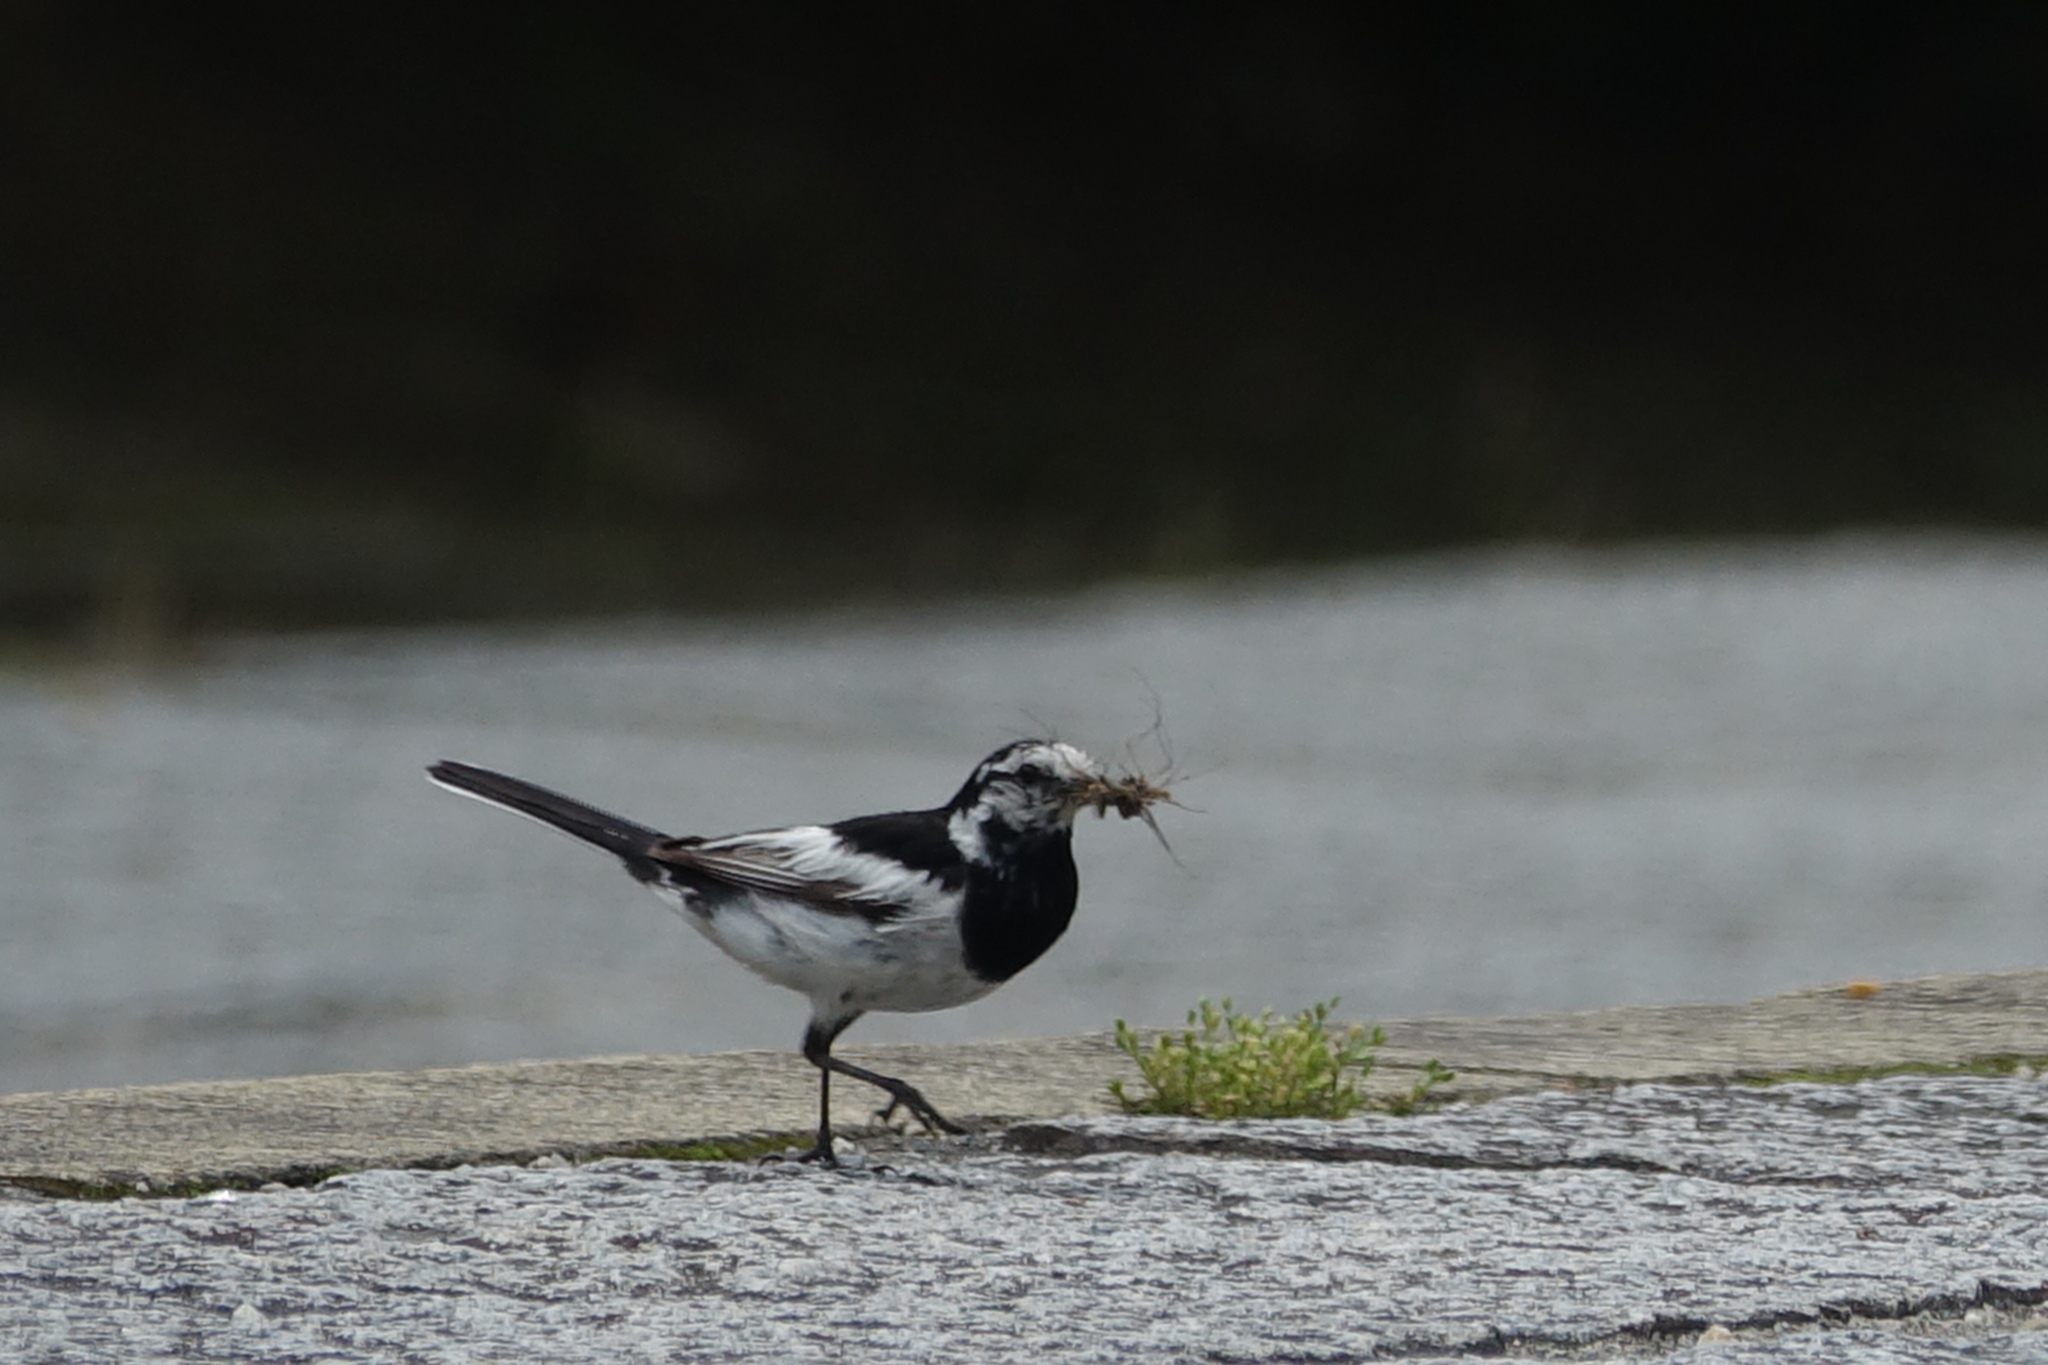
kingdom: Animalia
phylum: Chordata
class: Aves
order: Passeriformes
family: Motacillidae
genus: Motacilla
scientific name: Motacilla alba
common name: White wagtail
